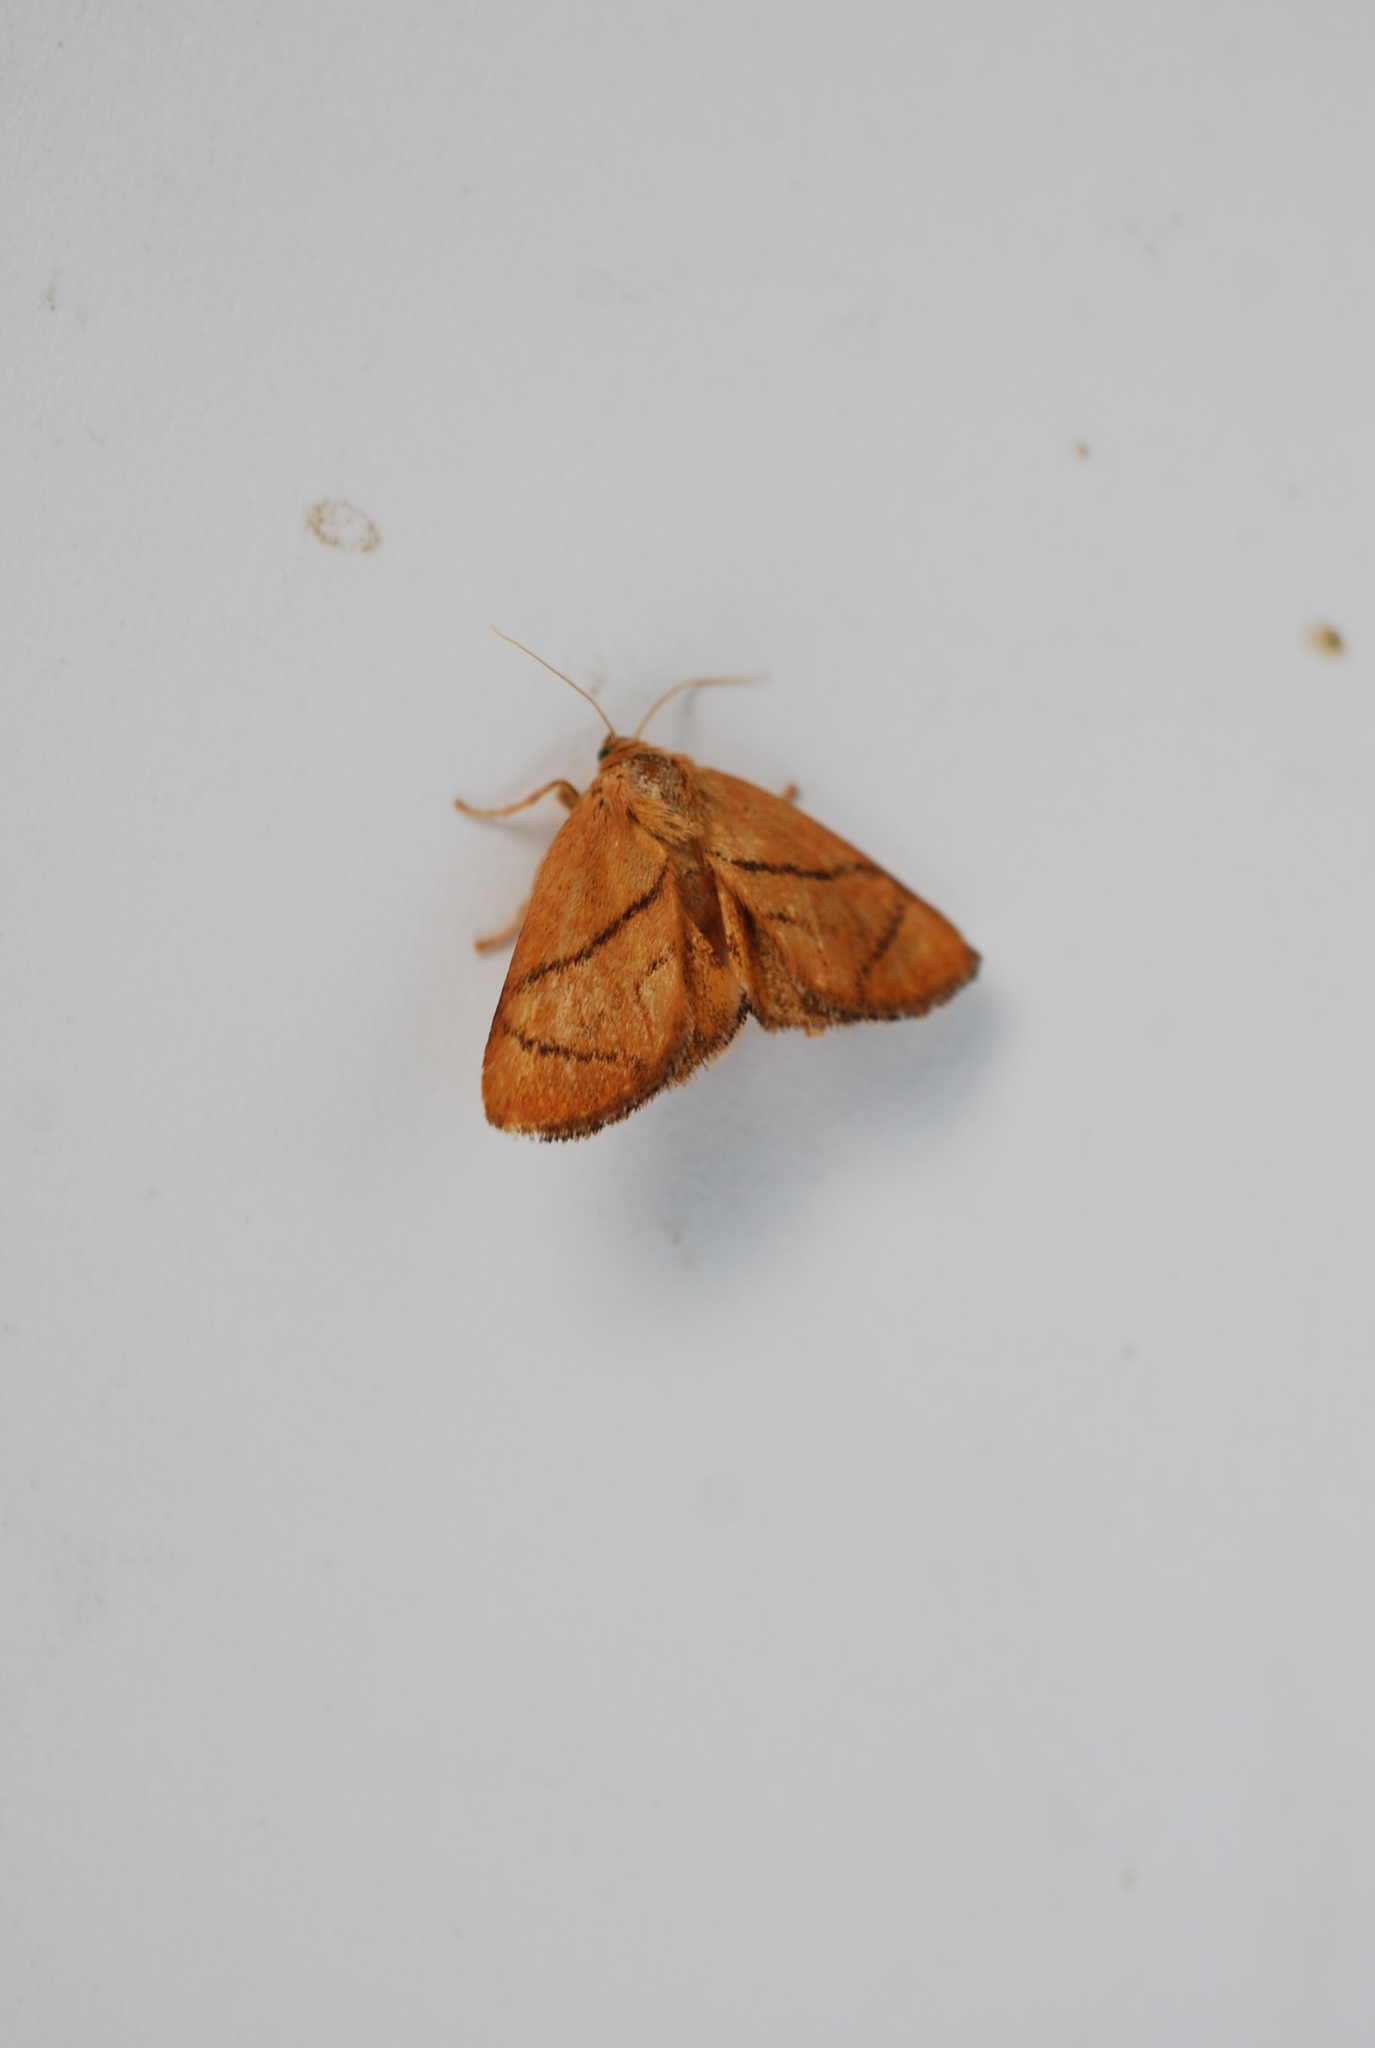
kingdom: Animalia
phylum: Arthropoda
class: Insecta
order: Lepidoptera
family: Limacodidae
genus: Apoda
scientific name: Apoda limacodes
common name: Festoon
